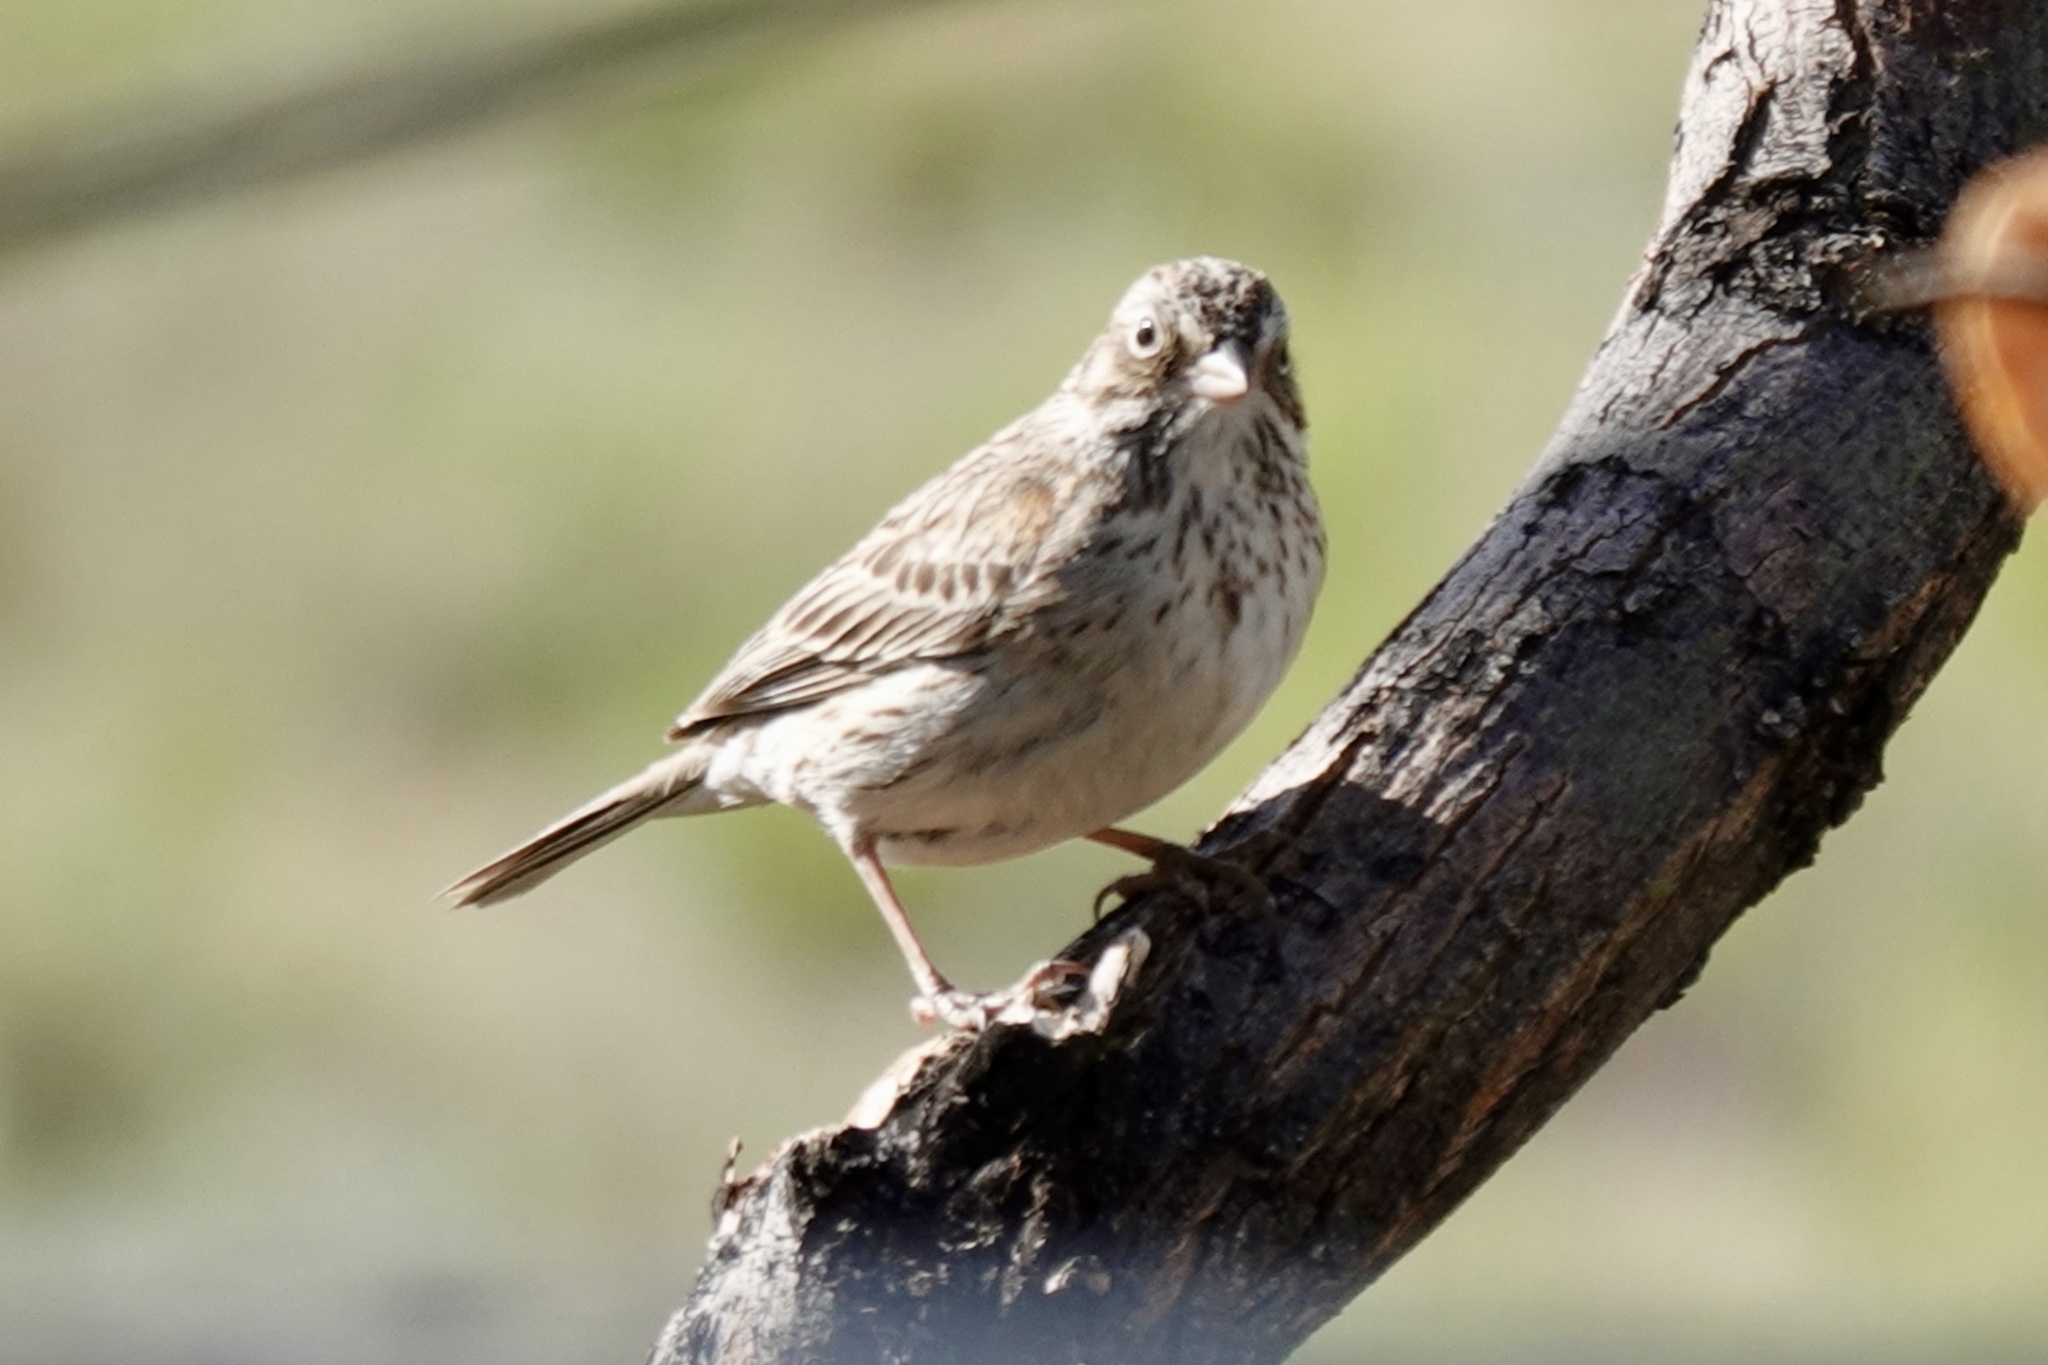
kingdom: Animalia
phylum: Chordata
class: Aves
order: Passeriformes
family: Passerellidae
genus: Pooecetes
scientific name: Pooecetes gramineus
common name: Vesper sparrow
